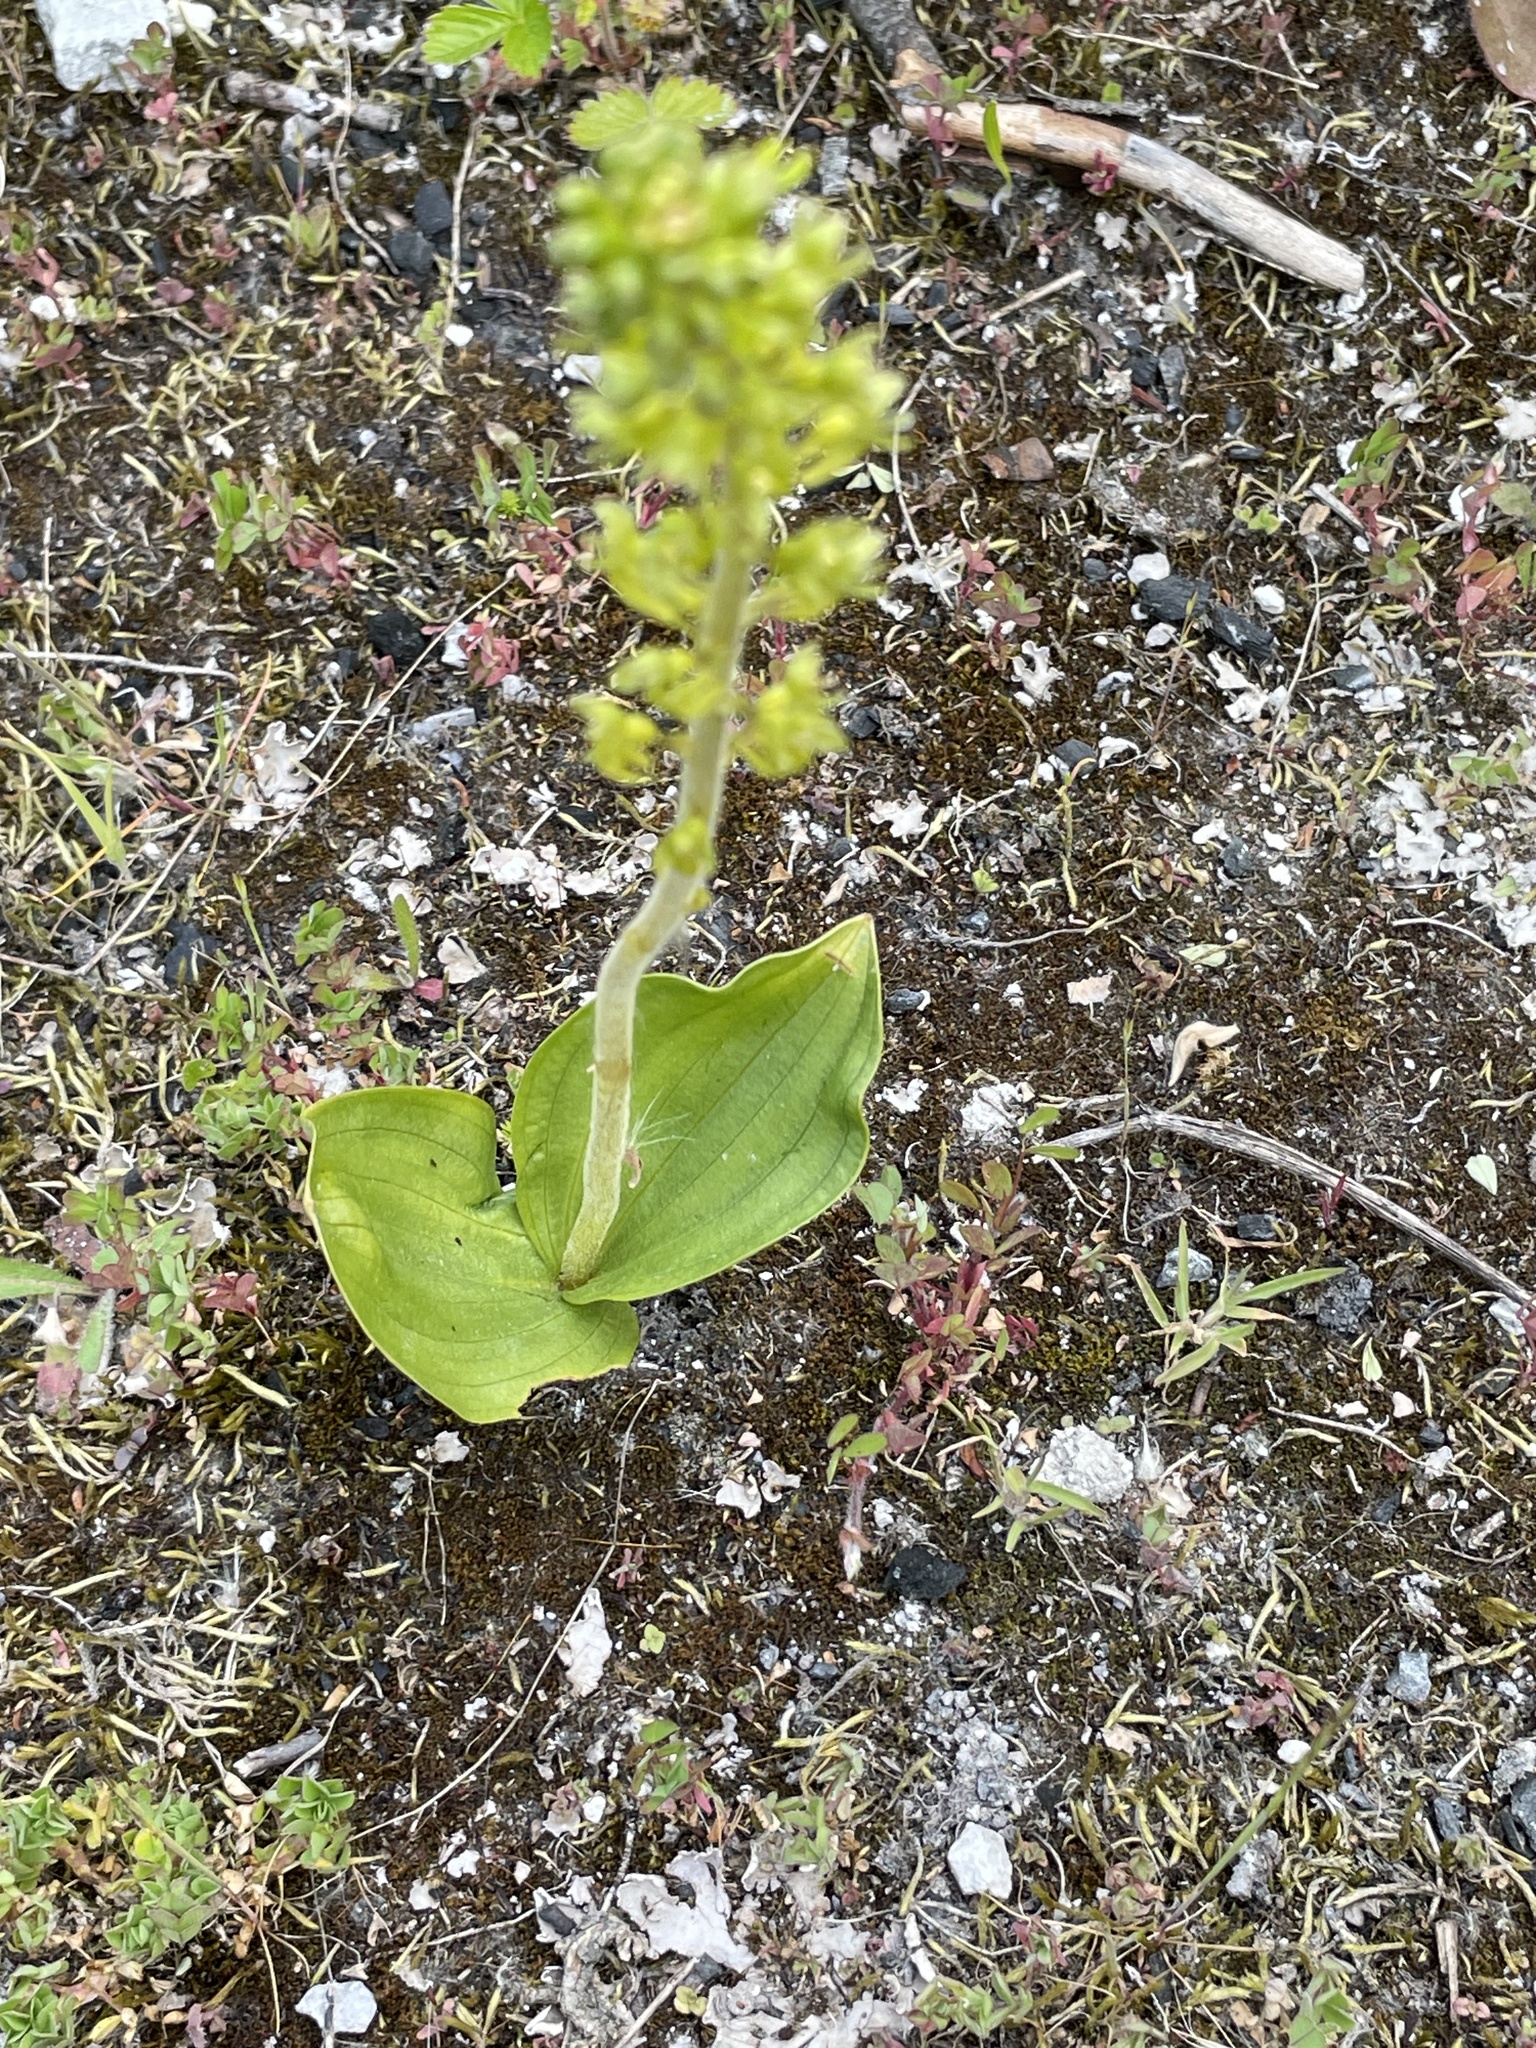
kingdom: Plantae
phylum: Tracheophyta
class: Liliopsida
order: Asparagales
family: Orchidaceae
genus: Neottia
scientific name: Neottia ovata
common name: Common twayblade
